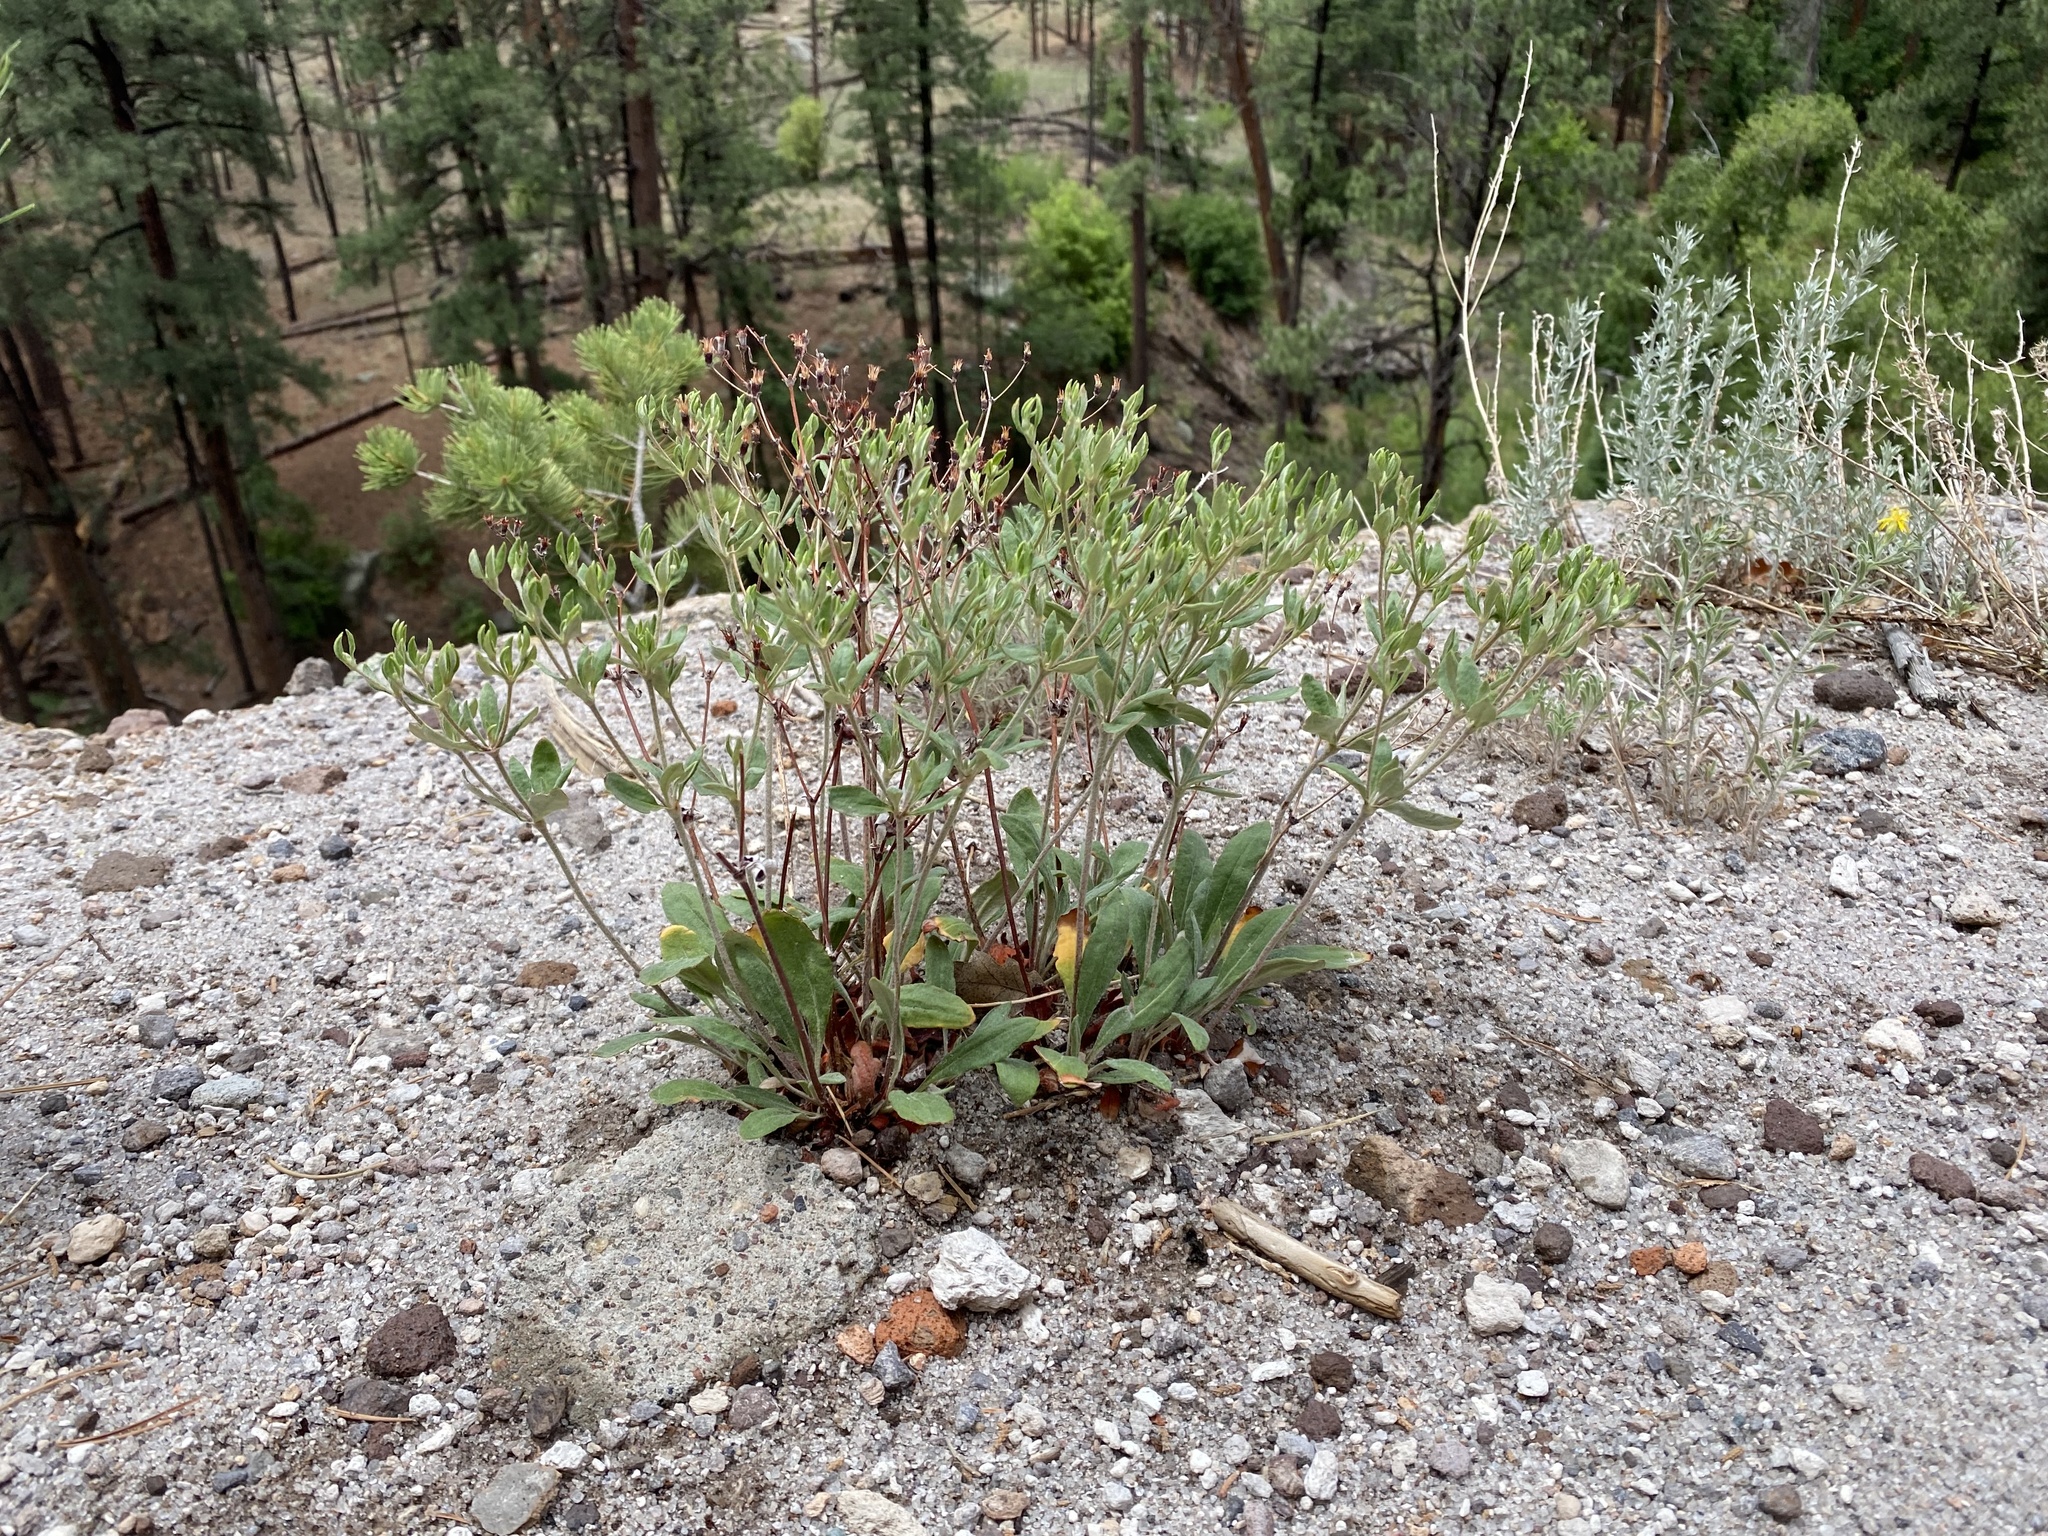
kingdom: Plantae
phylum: Tracheophyta
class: Magnoliopsida
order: Caryophyllales
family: Polygonaceae
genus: Eriogonum
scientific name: Eriogonum jamesii
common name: Antelope-sage
